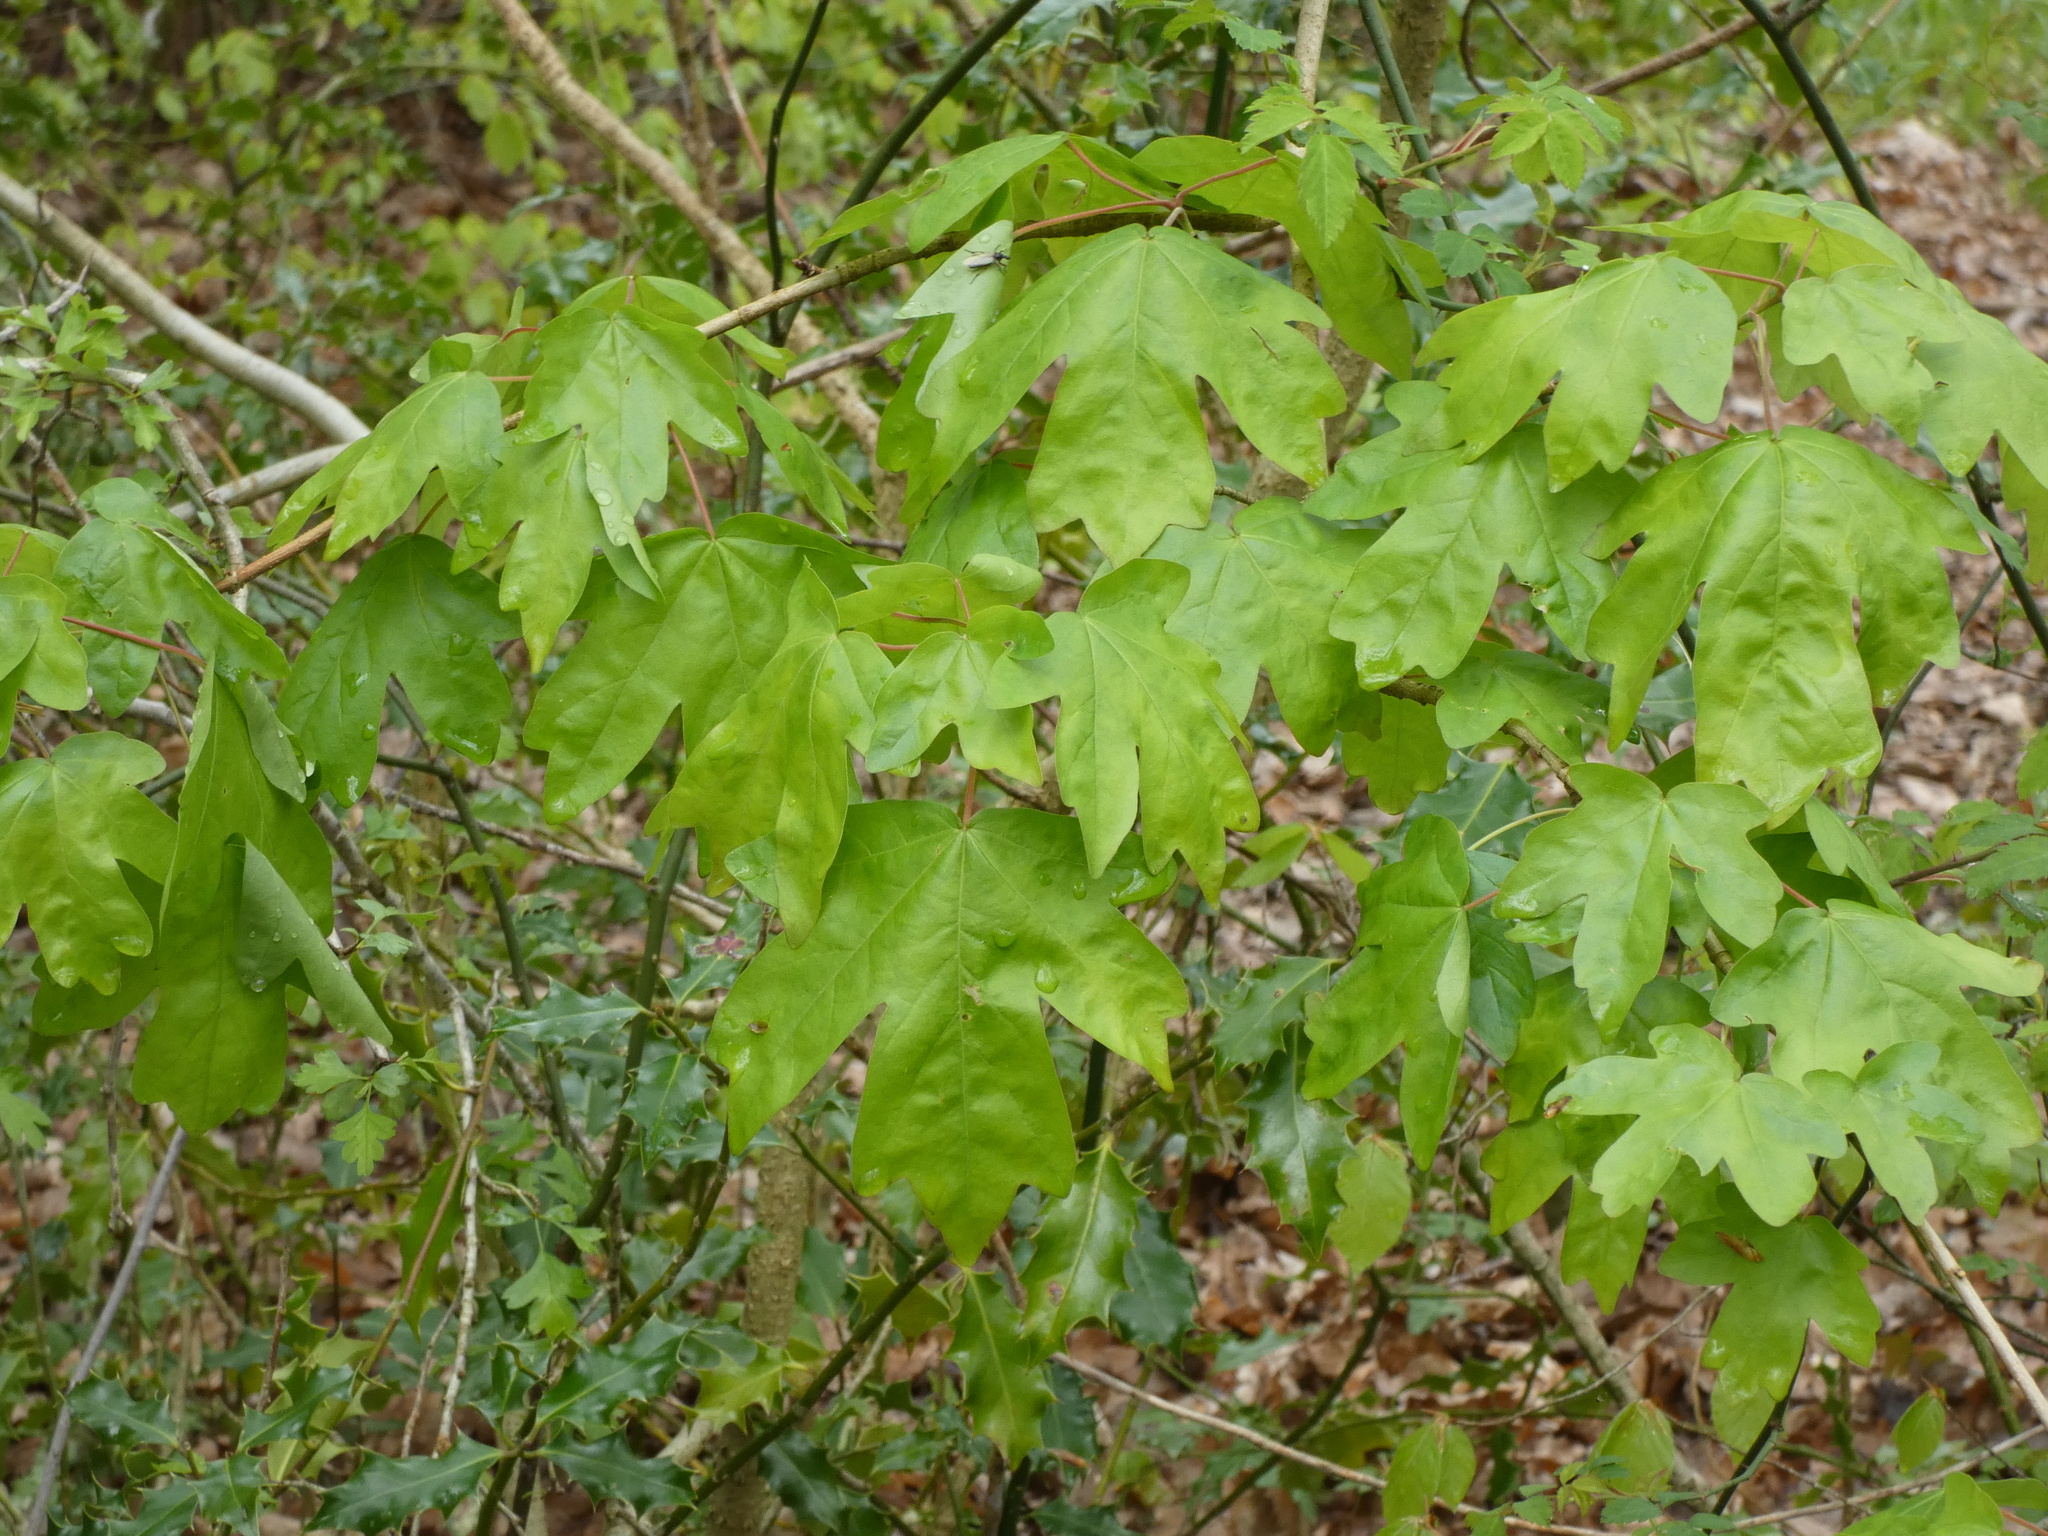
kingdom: Plantae
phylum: Tracheophyta
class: Magnoliopsida
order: Sapindales
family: Sapindaceae
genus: Acer
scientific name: Acer campestre
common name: Field maple
